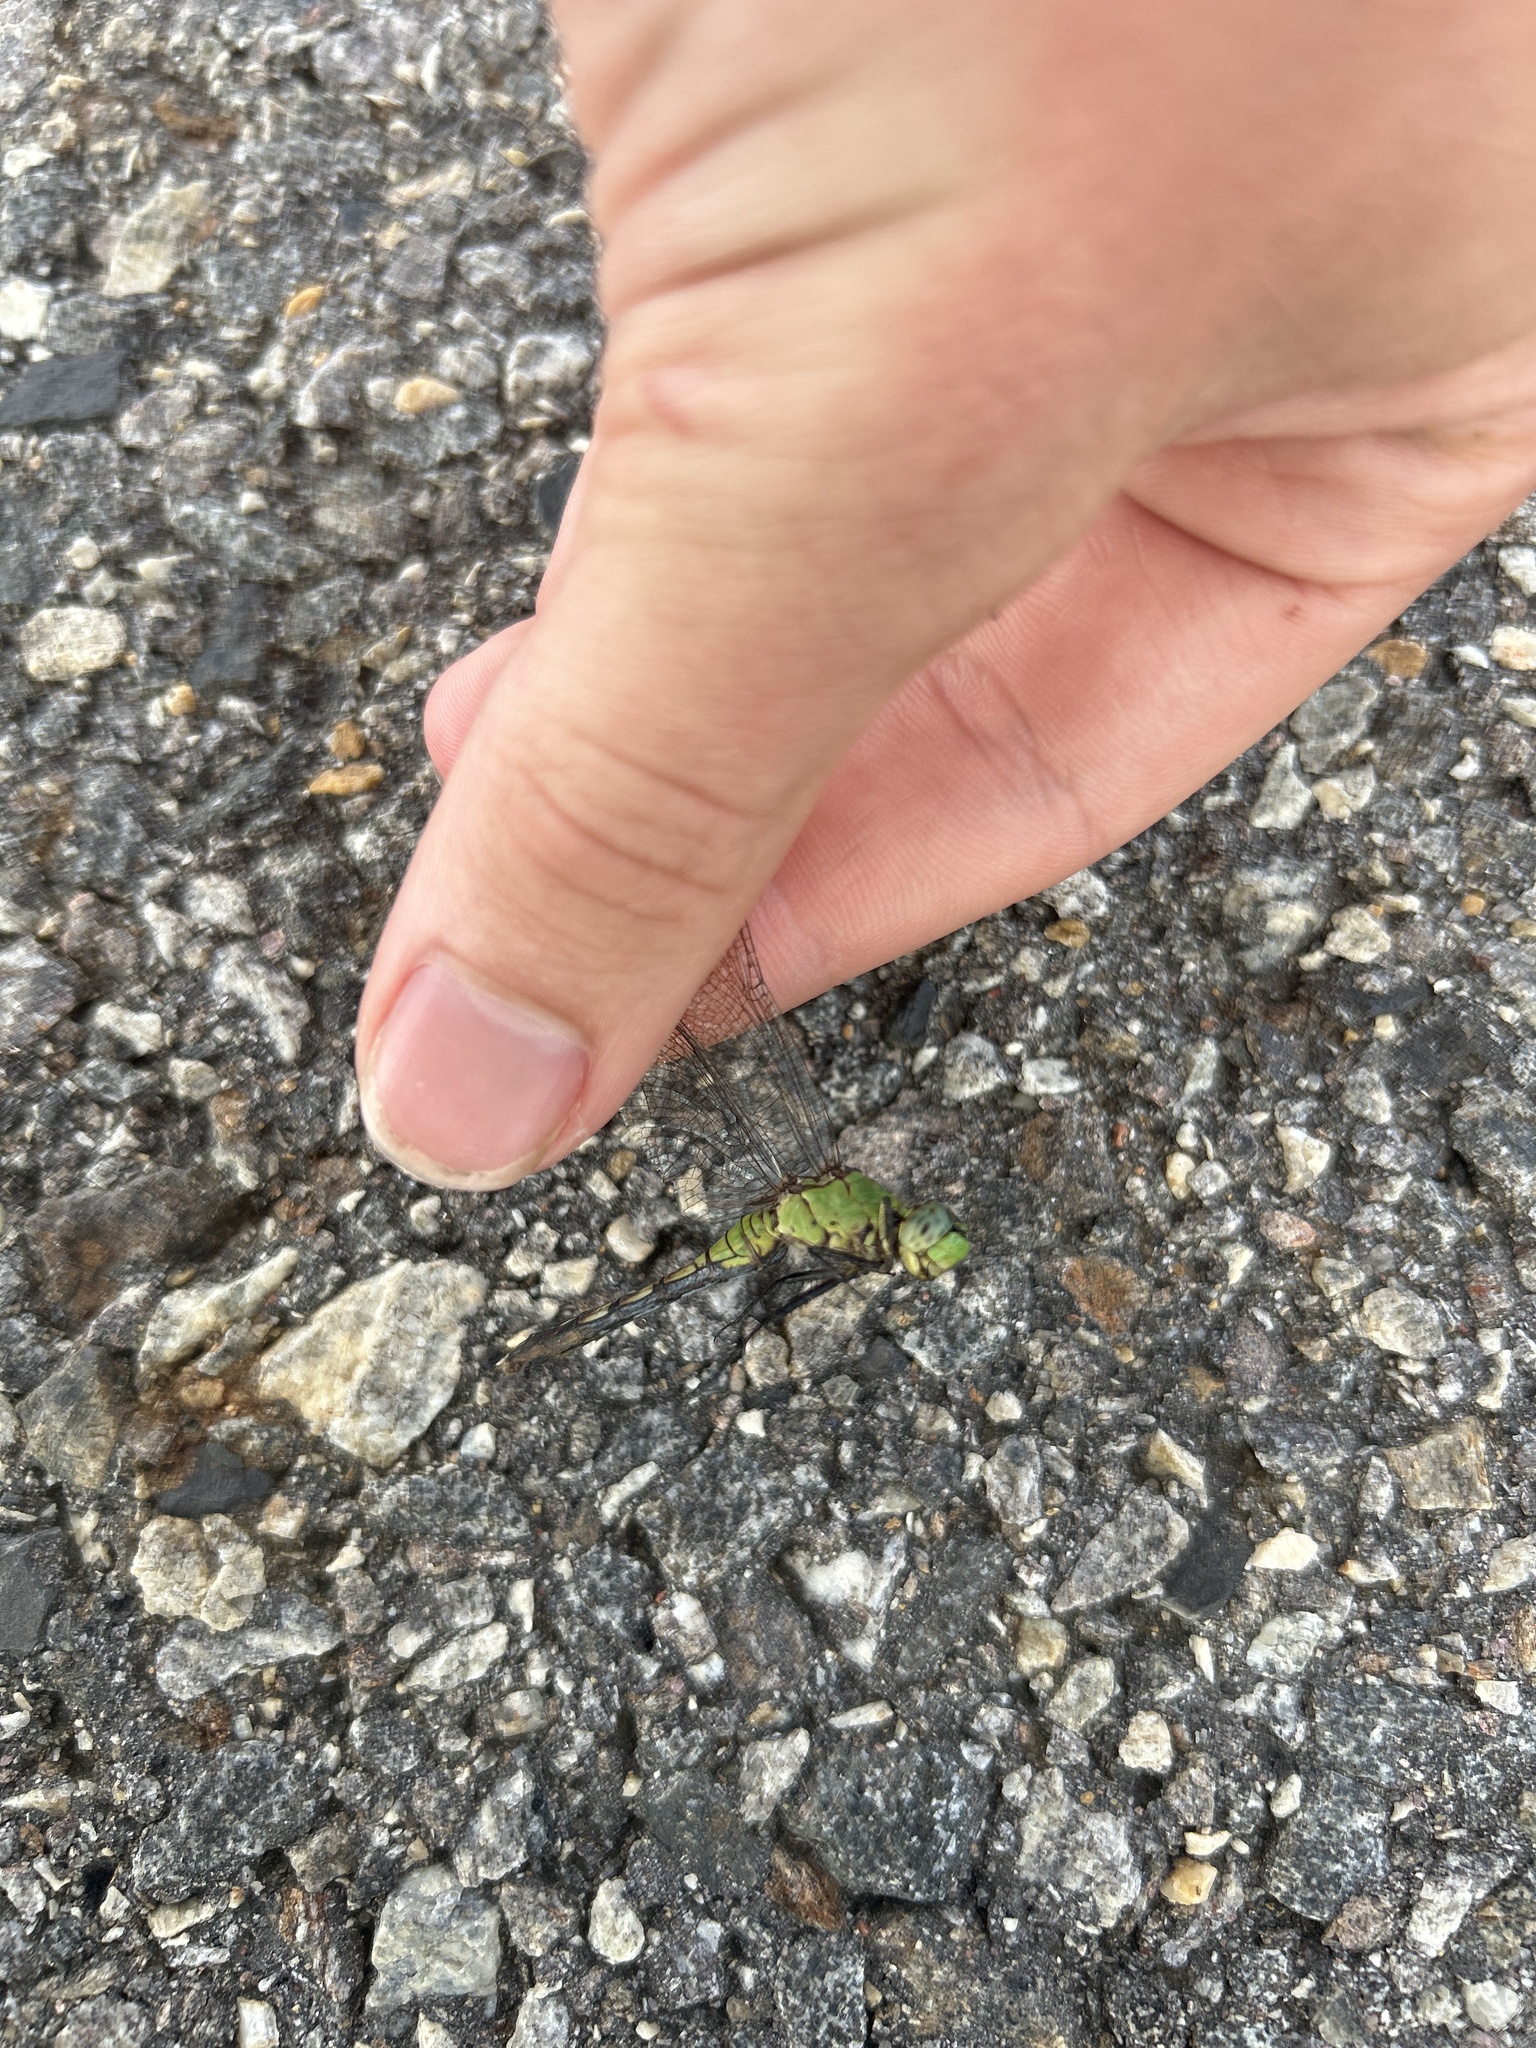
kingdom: Animalia
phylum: Arthropoda
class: Insecta
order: Odonata
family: Libellulidae
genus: Erythemis
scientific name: Erythemis simplicicollis
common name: Eastern pondhawk
